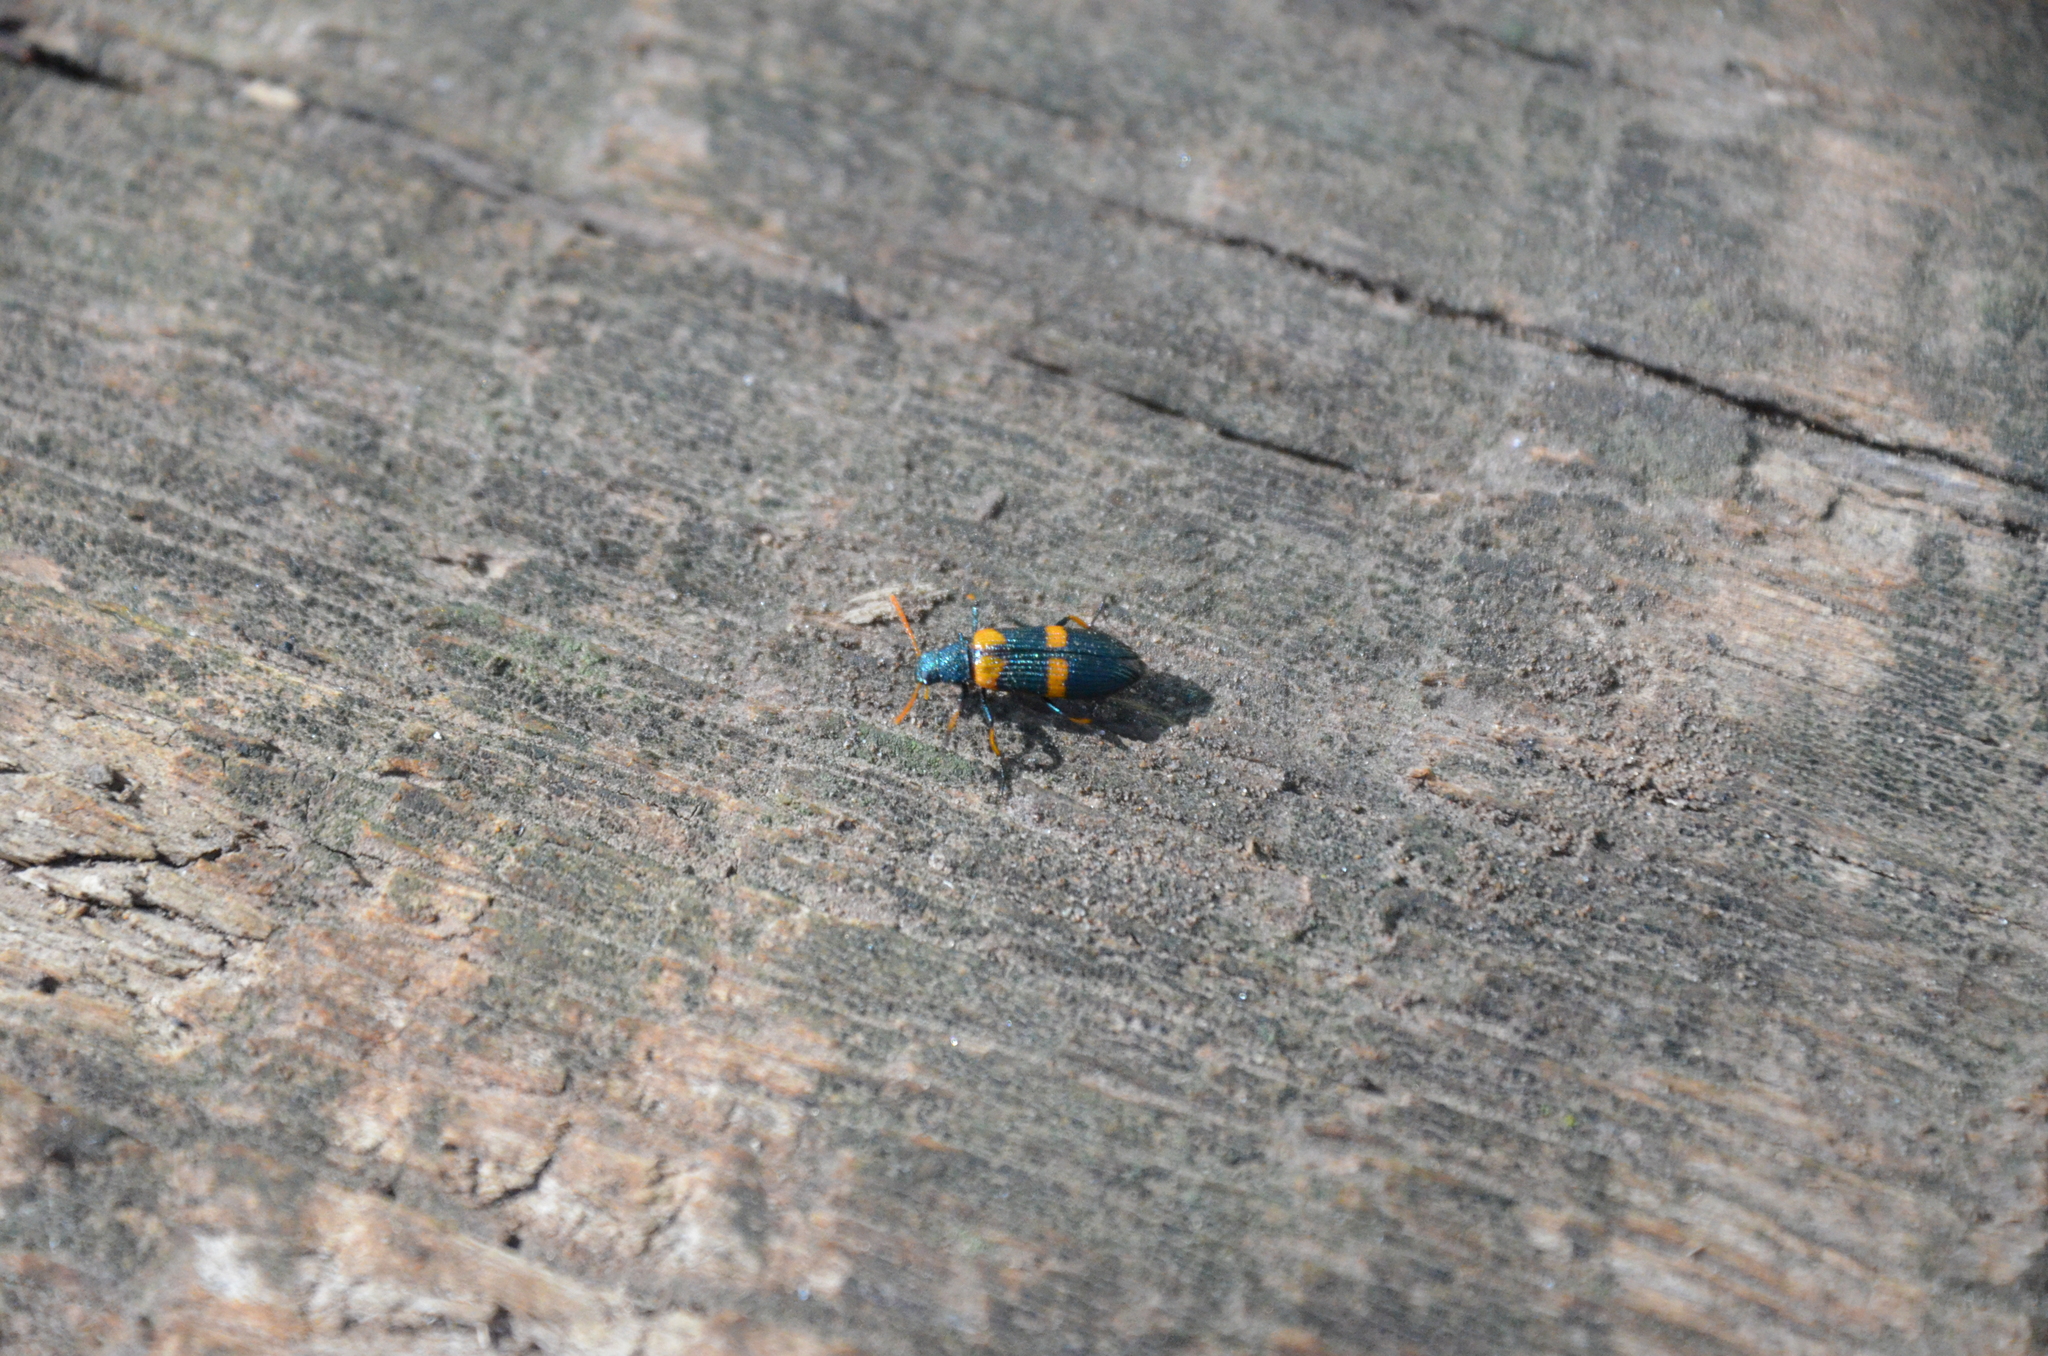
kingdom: Animalia
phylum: Arthropoda
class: Insecta
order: Coleoptera
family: Tenebrionidae
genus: Strongylium
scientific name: Strongylium
